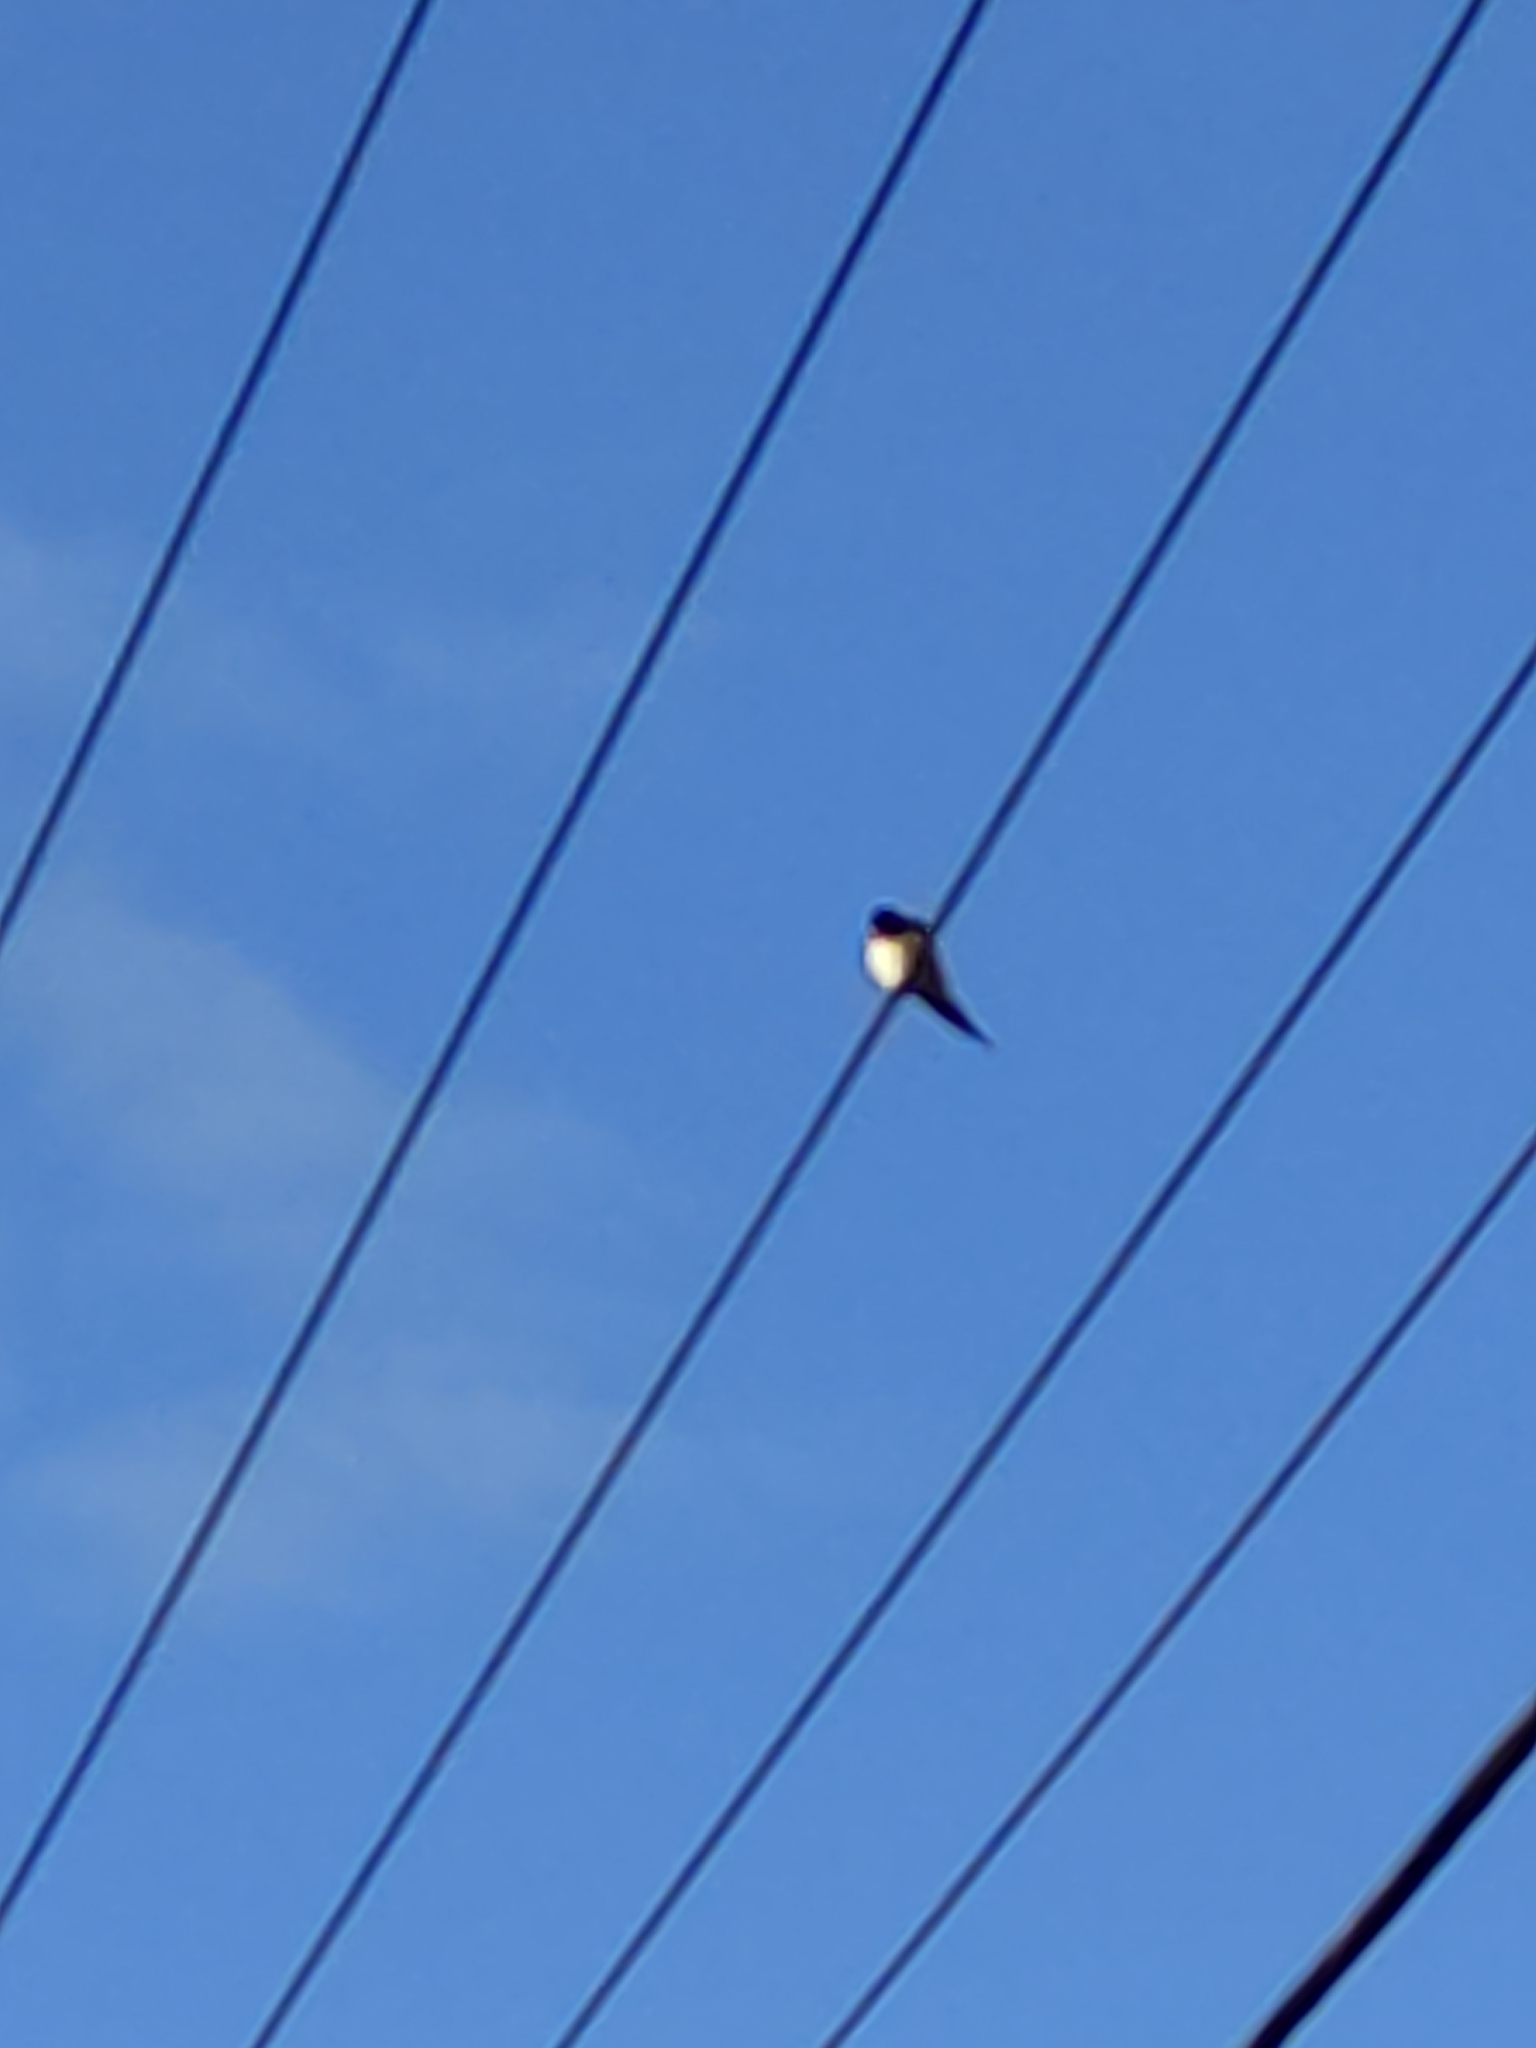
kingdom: Animalia
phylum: Chordata
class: Aves
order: Passeriformes
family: Hirundinidae
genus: Hirundo
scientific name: Hirundo neoxena
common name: Welcome swallow
